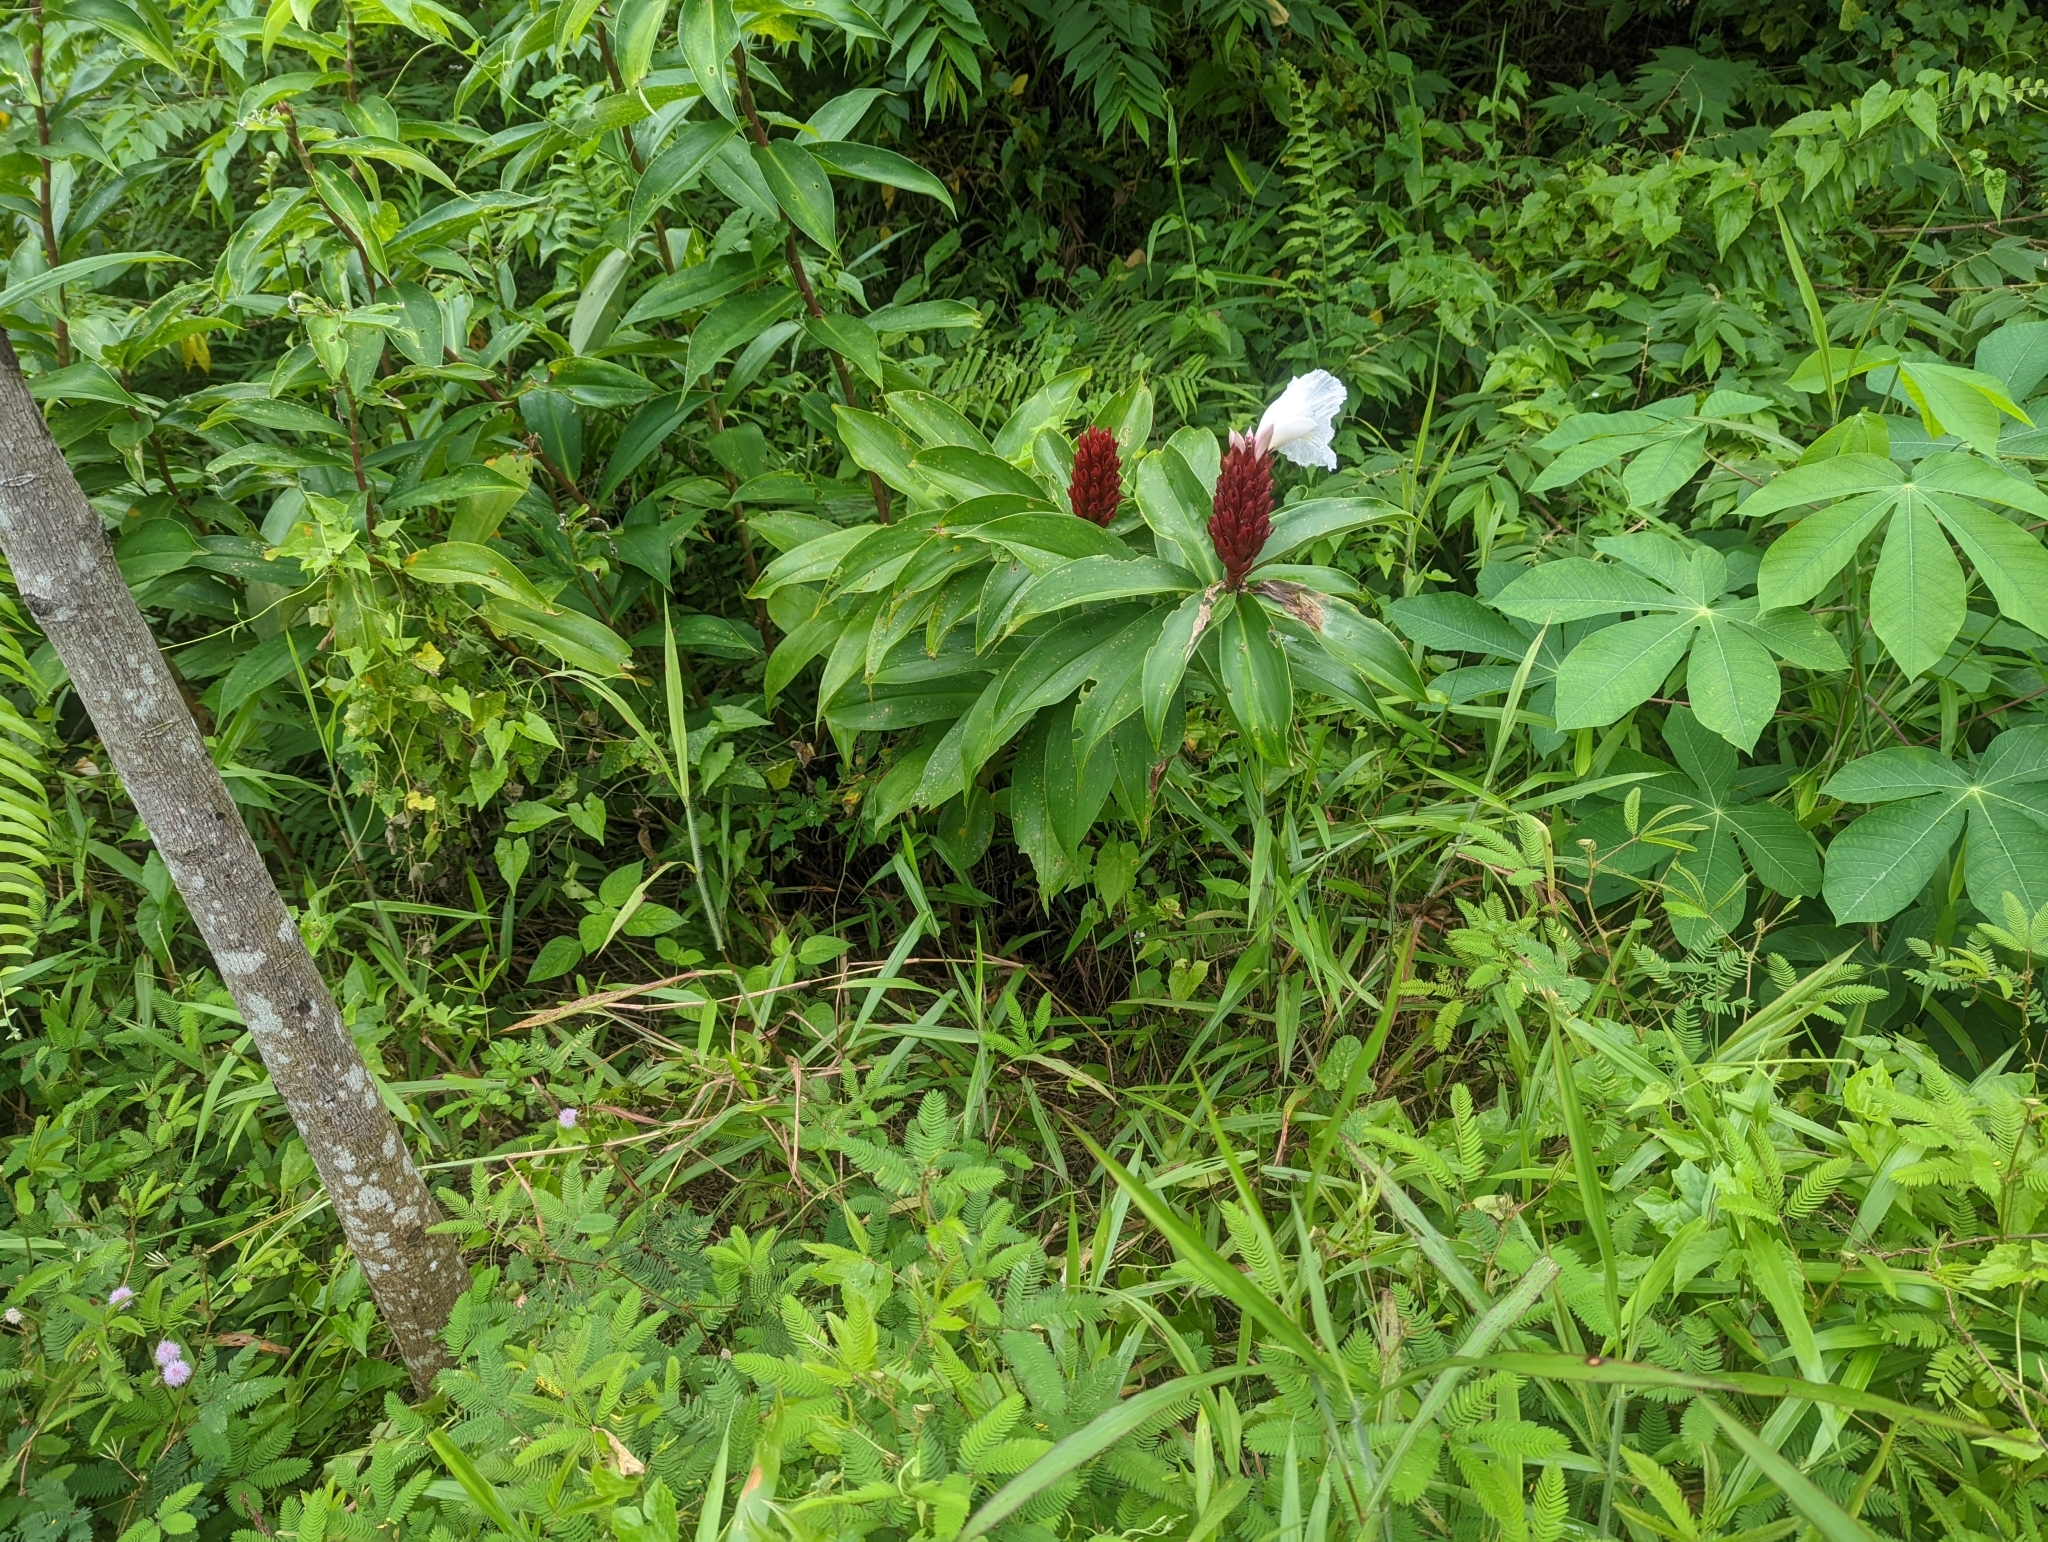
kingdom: Plantae
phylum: Tracheophyta
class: Liliopsida
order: Zingiberales
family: Costaceae
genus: Hellenia
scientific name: Hellenia speciosa
